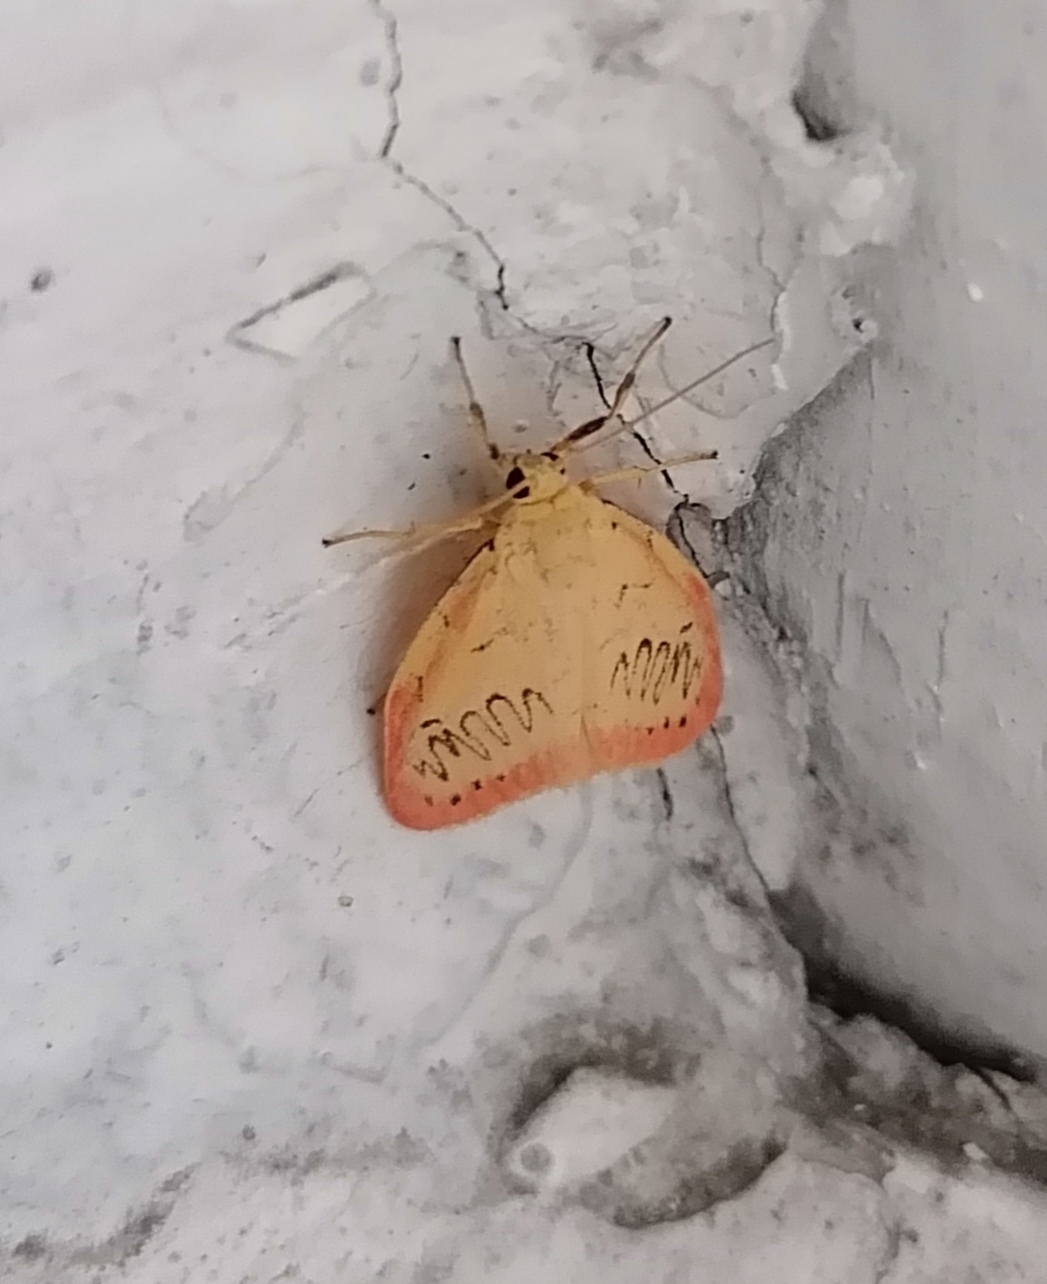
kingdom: Animalia
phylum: Arthropoda
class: Insecta
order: Lepidoptera
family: Erebidae
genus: Miltochrista
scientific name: Miltochrista miniata
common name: Rosy footman
